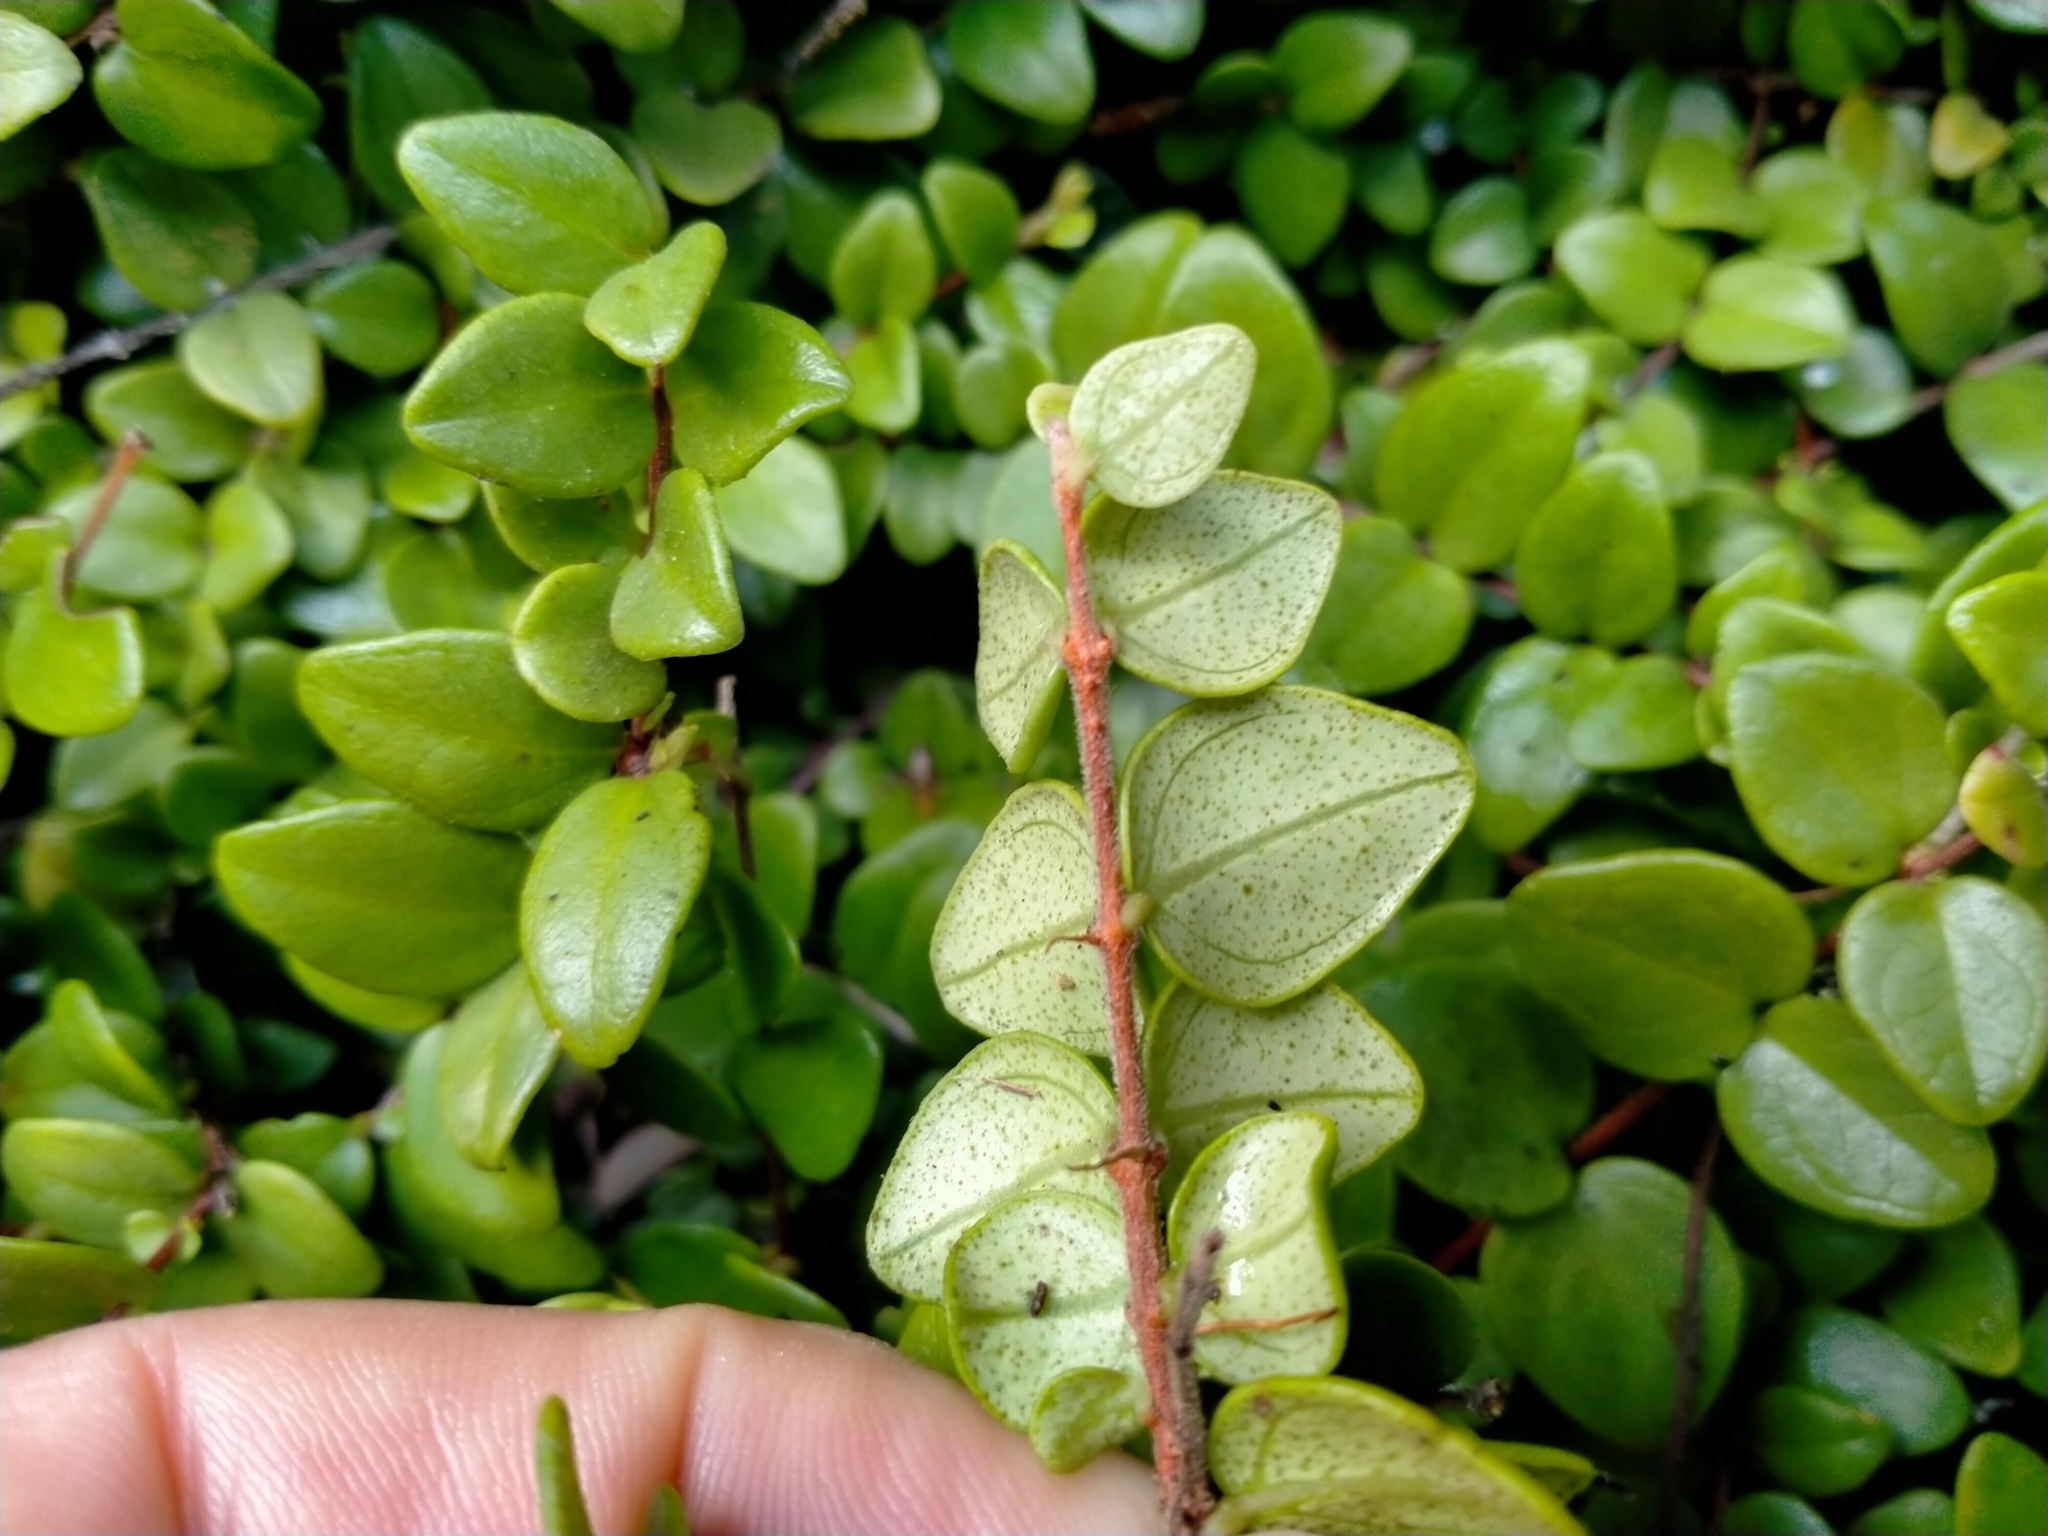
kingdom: Plantae
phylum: Tracheophyta
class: Magnoliopsida
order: Myrtales
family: Myrtaceae
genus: Metrosideros
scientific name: Metrosideros perforata
